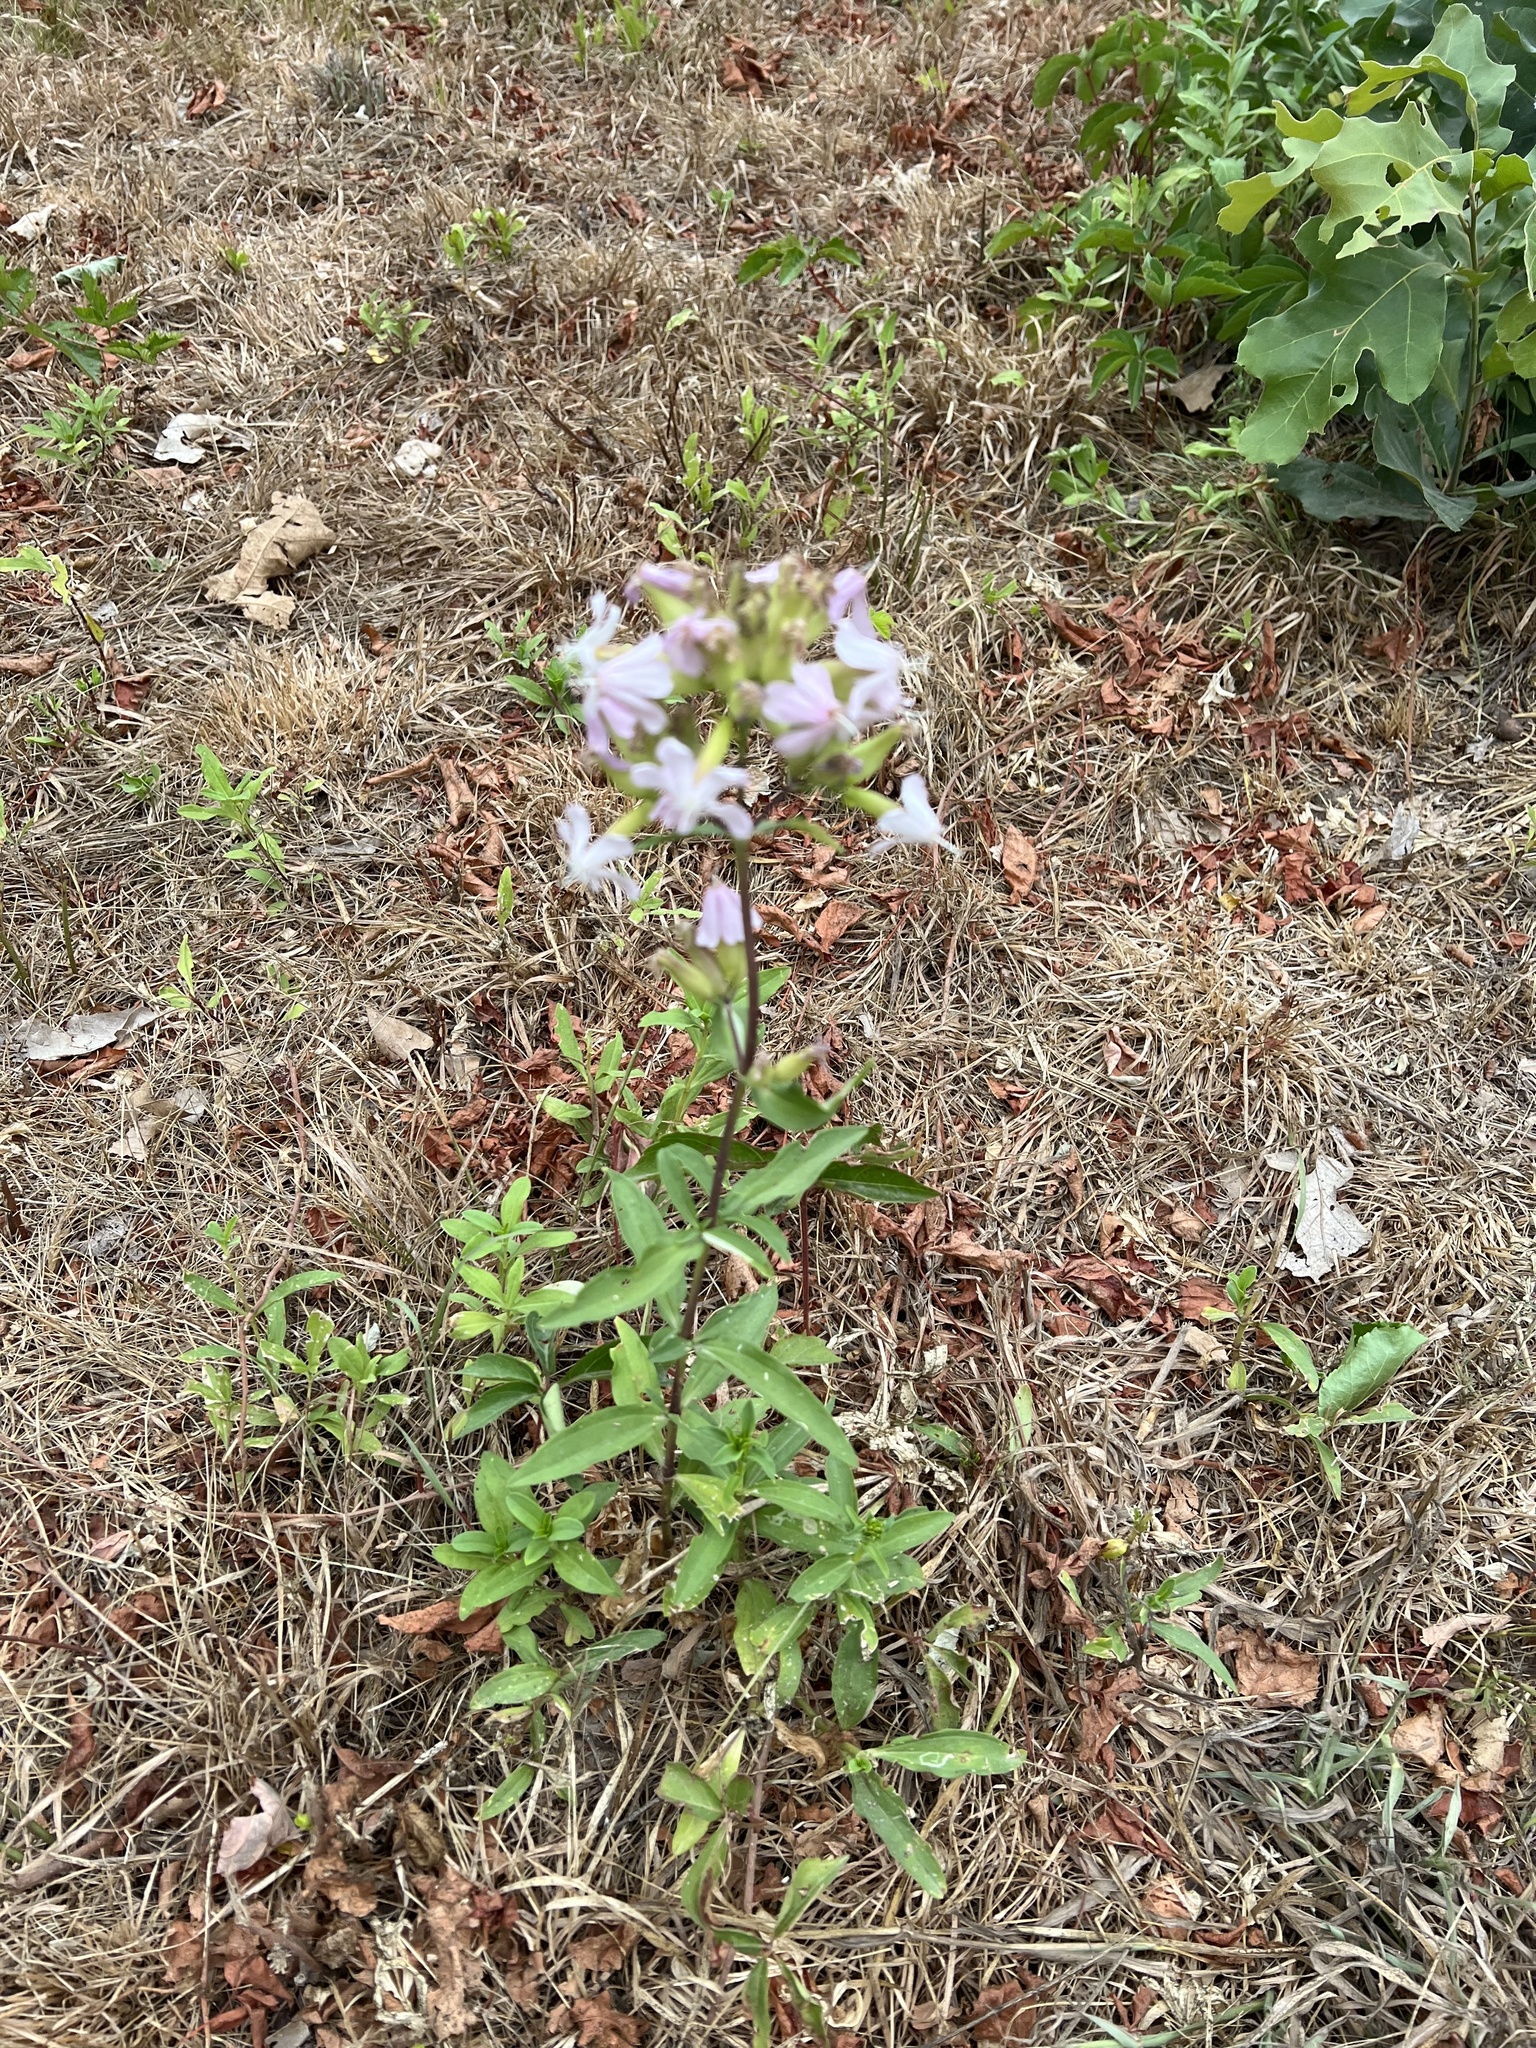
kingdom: Plantae
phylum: Tracheophyta
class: Magnoliopsida
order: Caryophyllales
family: Caryophyllaceae
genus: Saponaria
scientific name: Saponaria officinalis
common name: Soapwort
